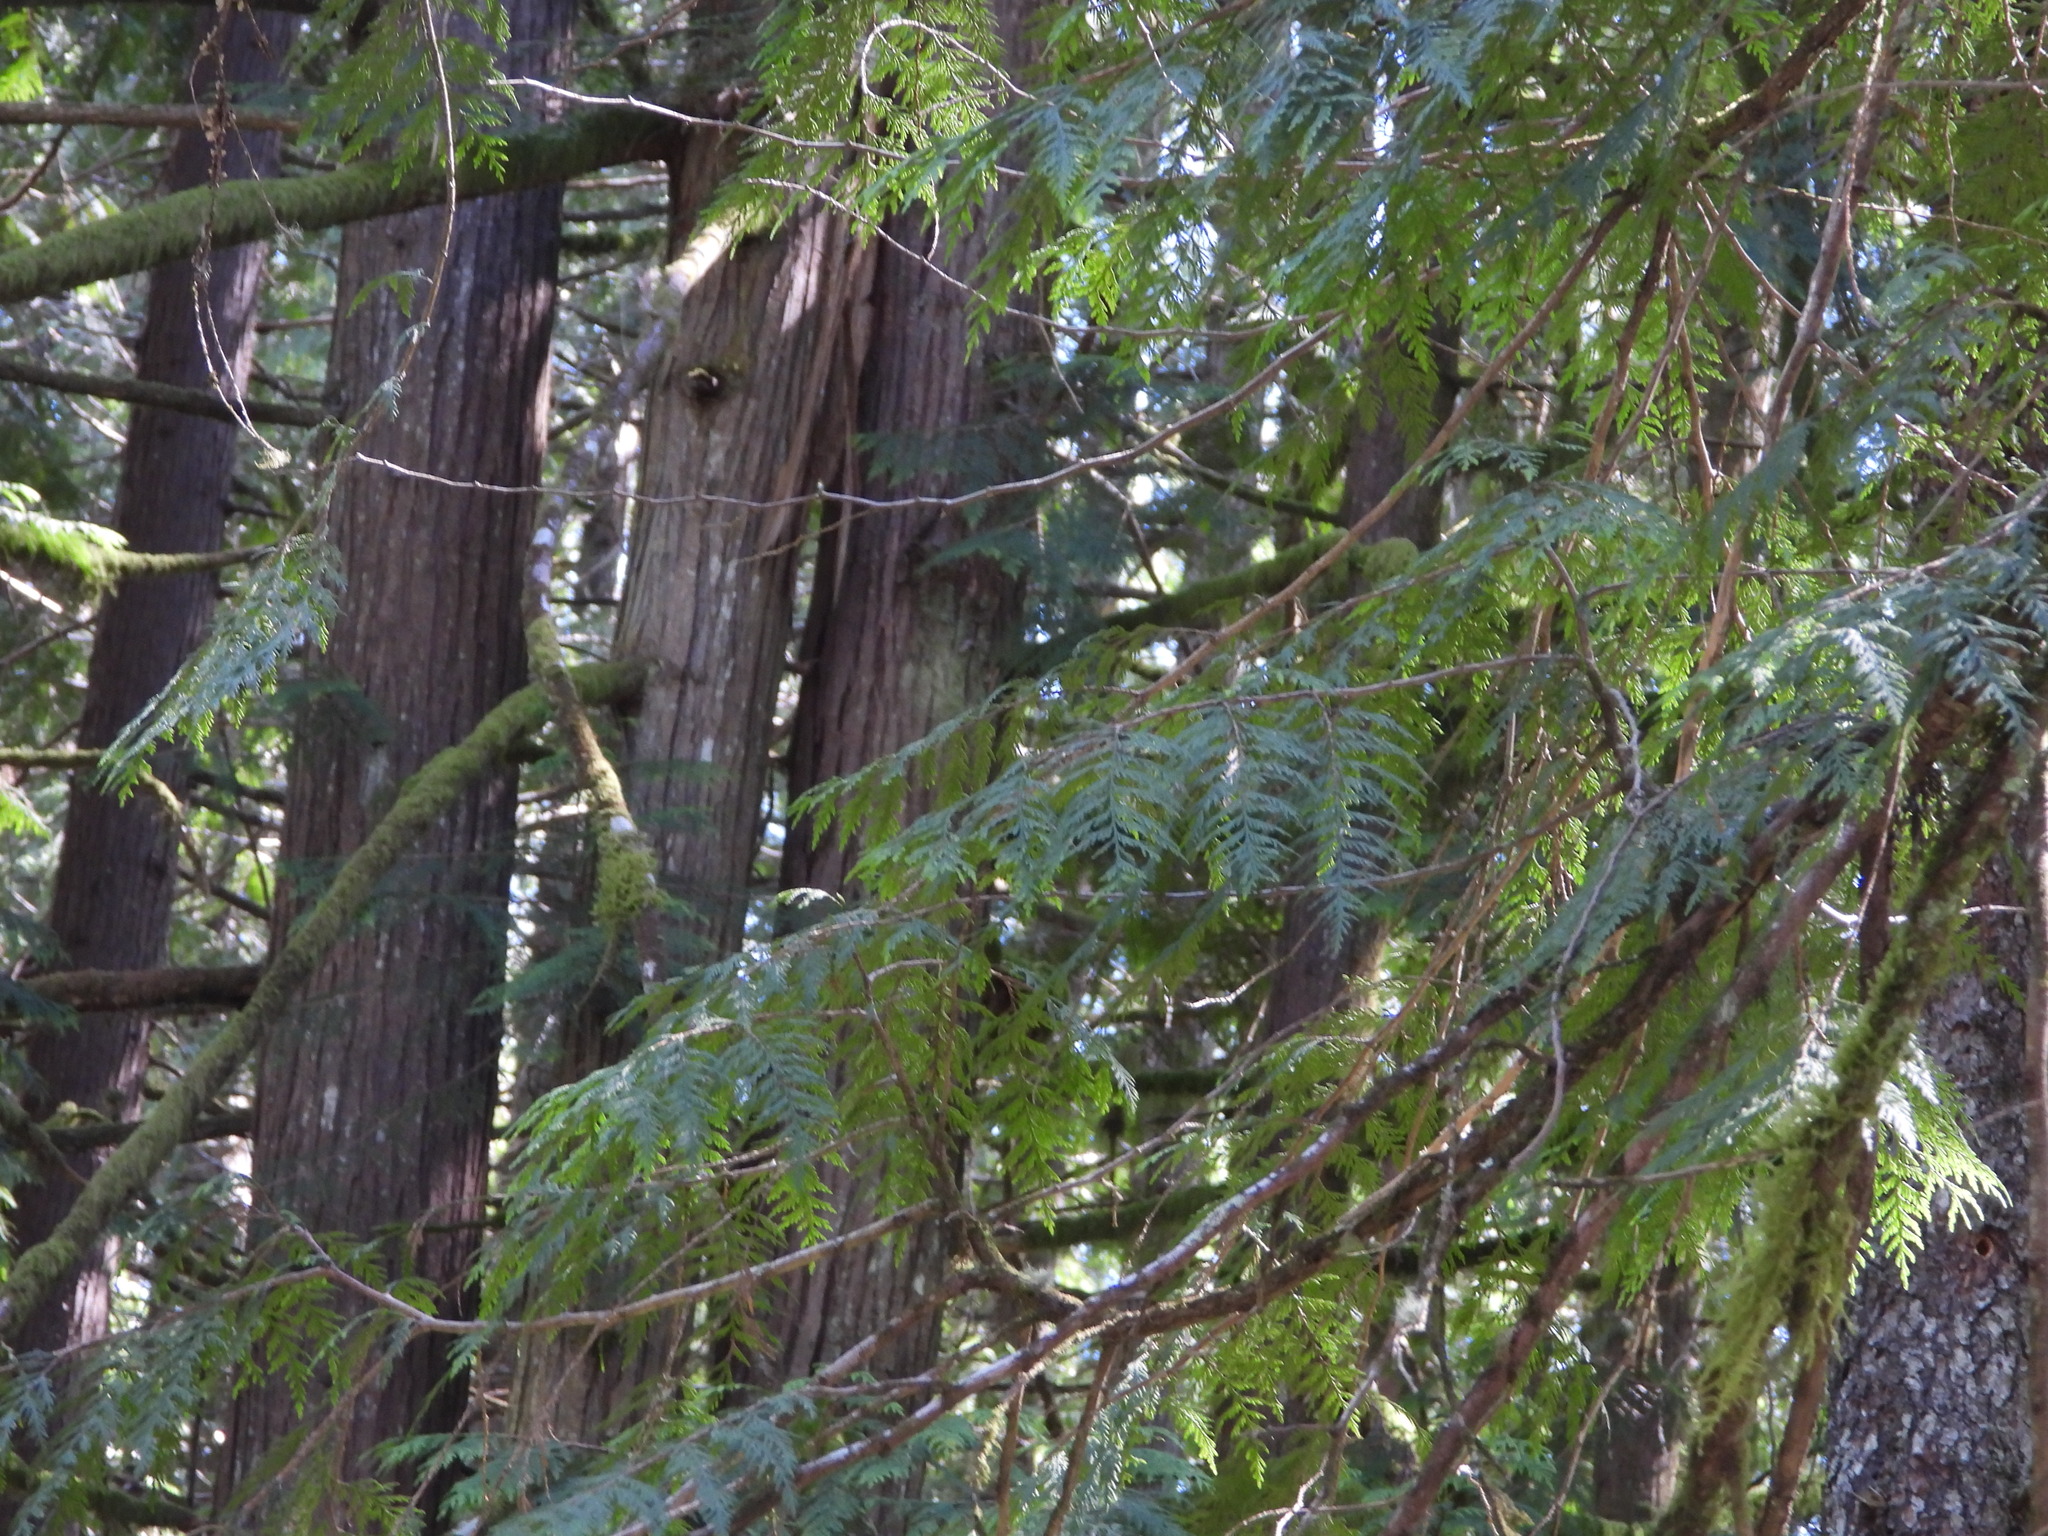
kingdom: Plantae
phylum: Tracheophyta
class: Pinopsida
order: Pinales
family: Cupressaceae
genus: Thuja
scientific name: Thuja plicata
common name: Western red-cedar
